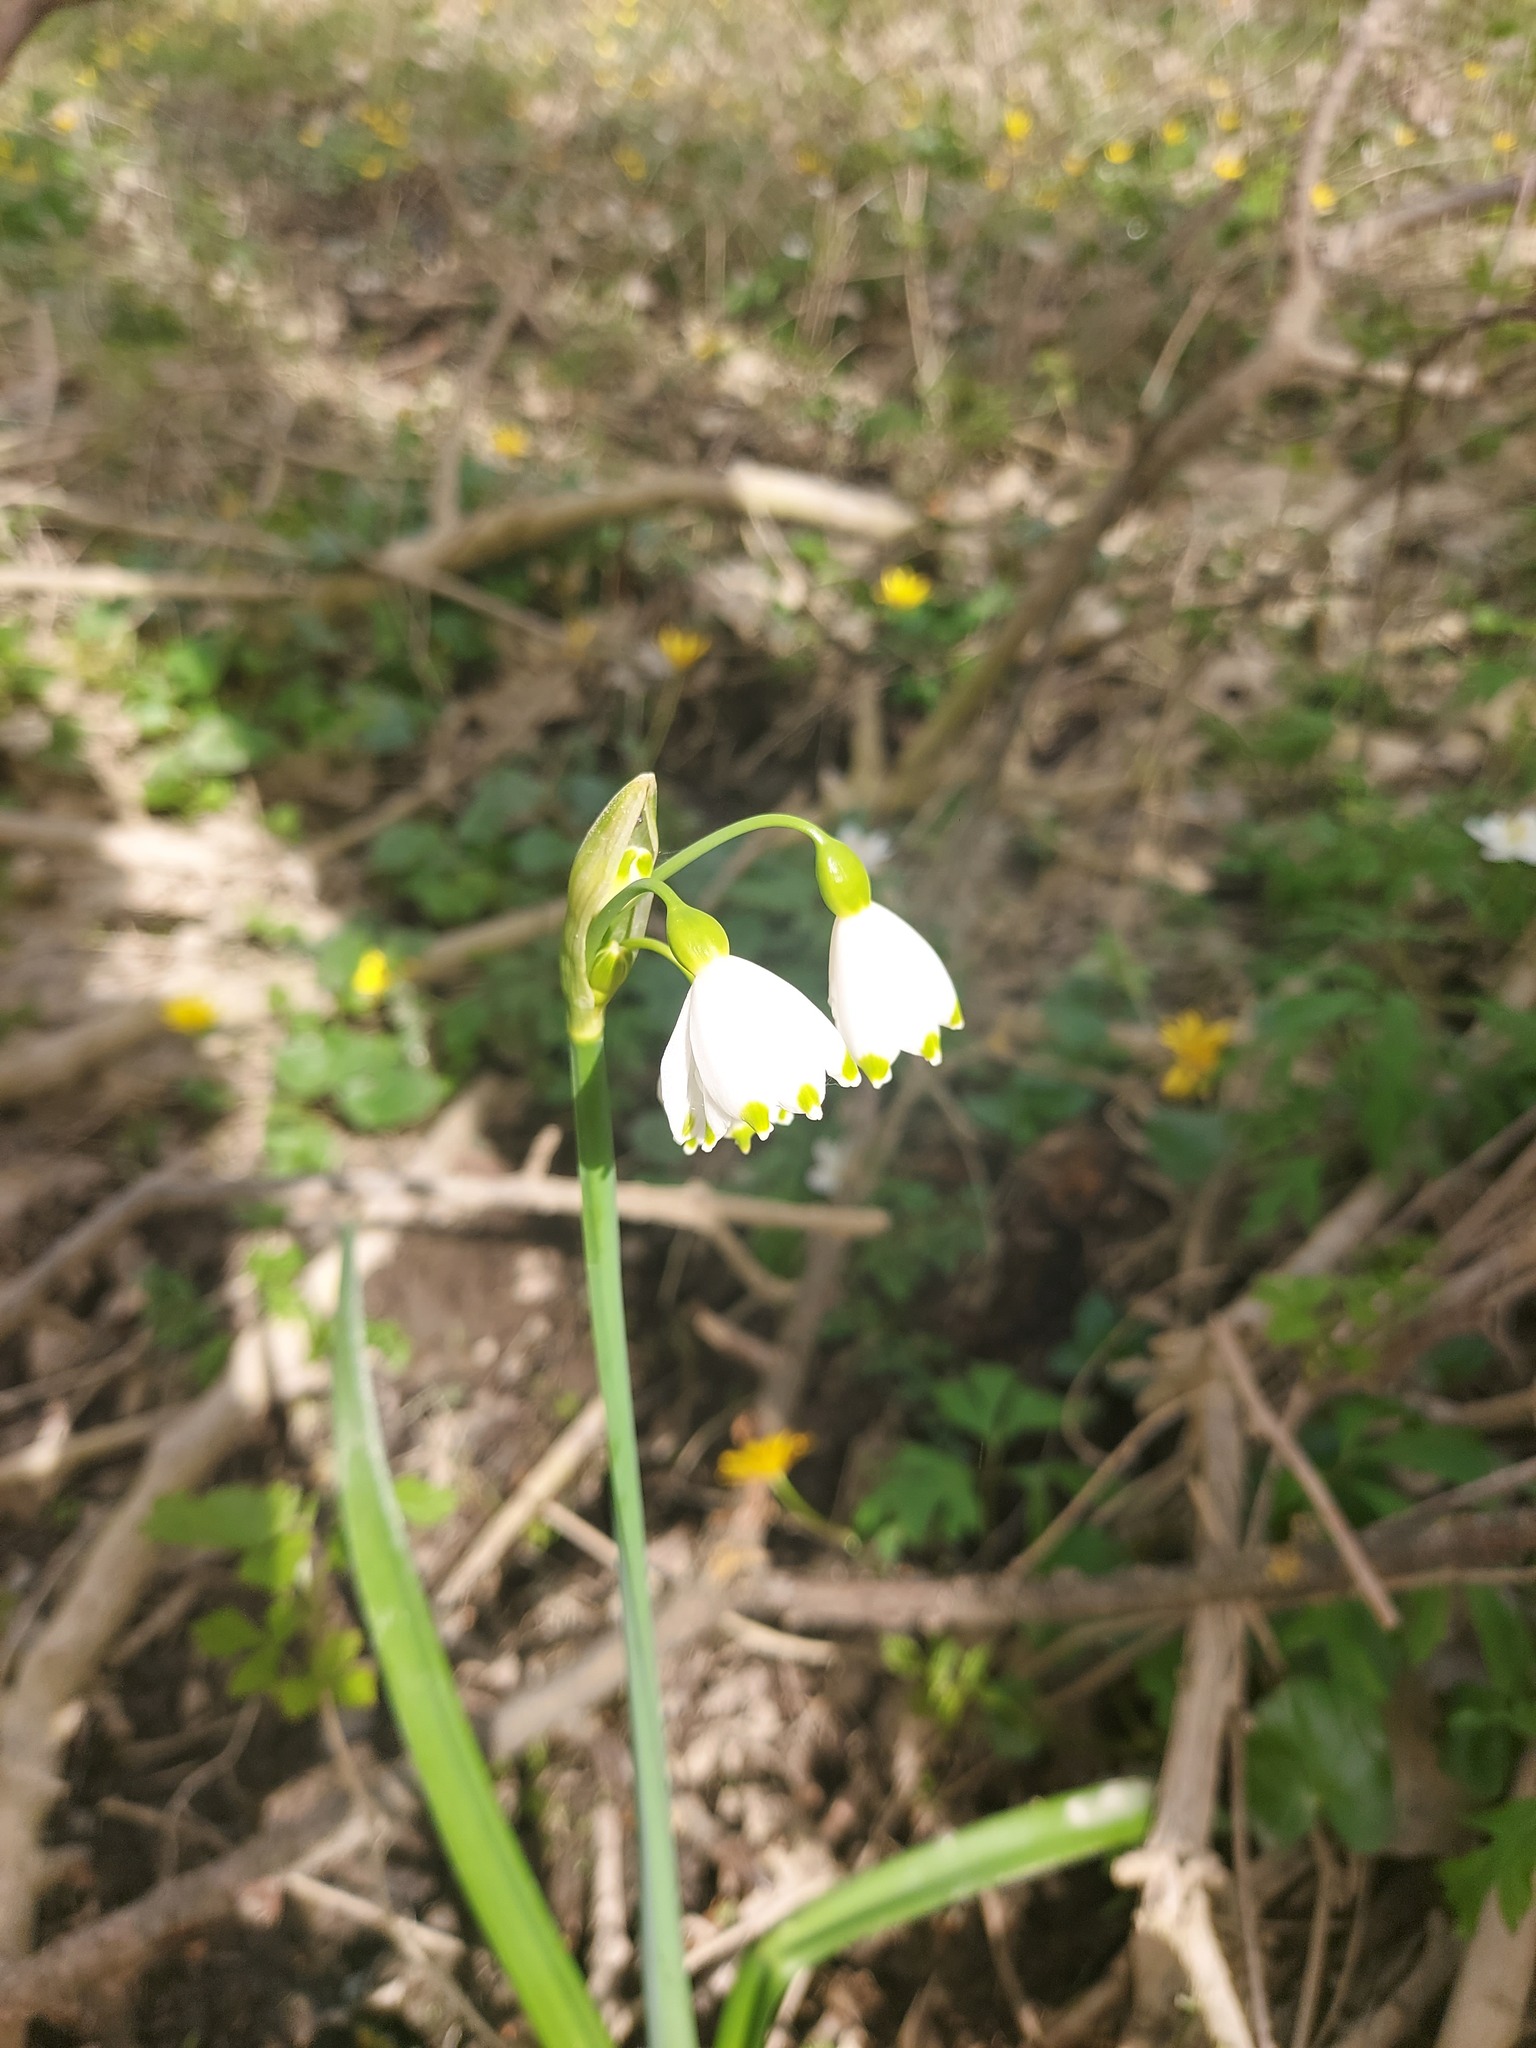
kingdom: Plantae
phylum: Tracheophyta
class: Liliopsida
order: Asparagales
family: Amaryllidaceae
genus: Leucojum
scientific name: Leucojum aestivum
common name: Summer snowflake
